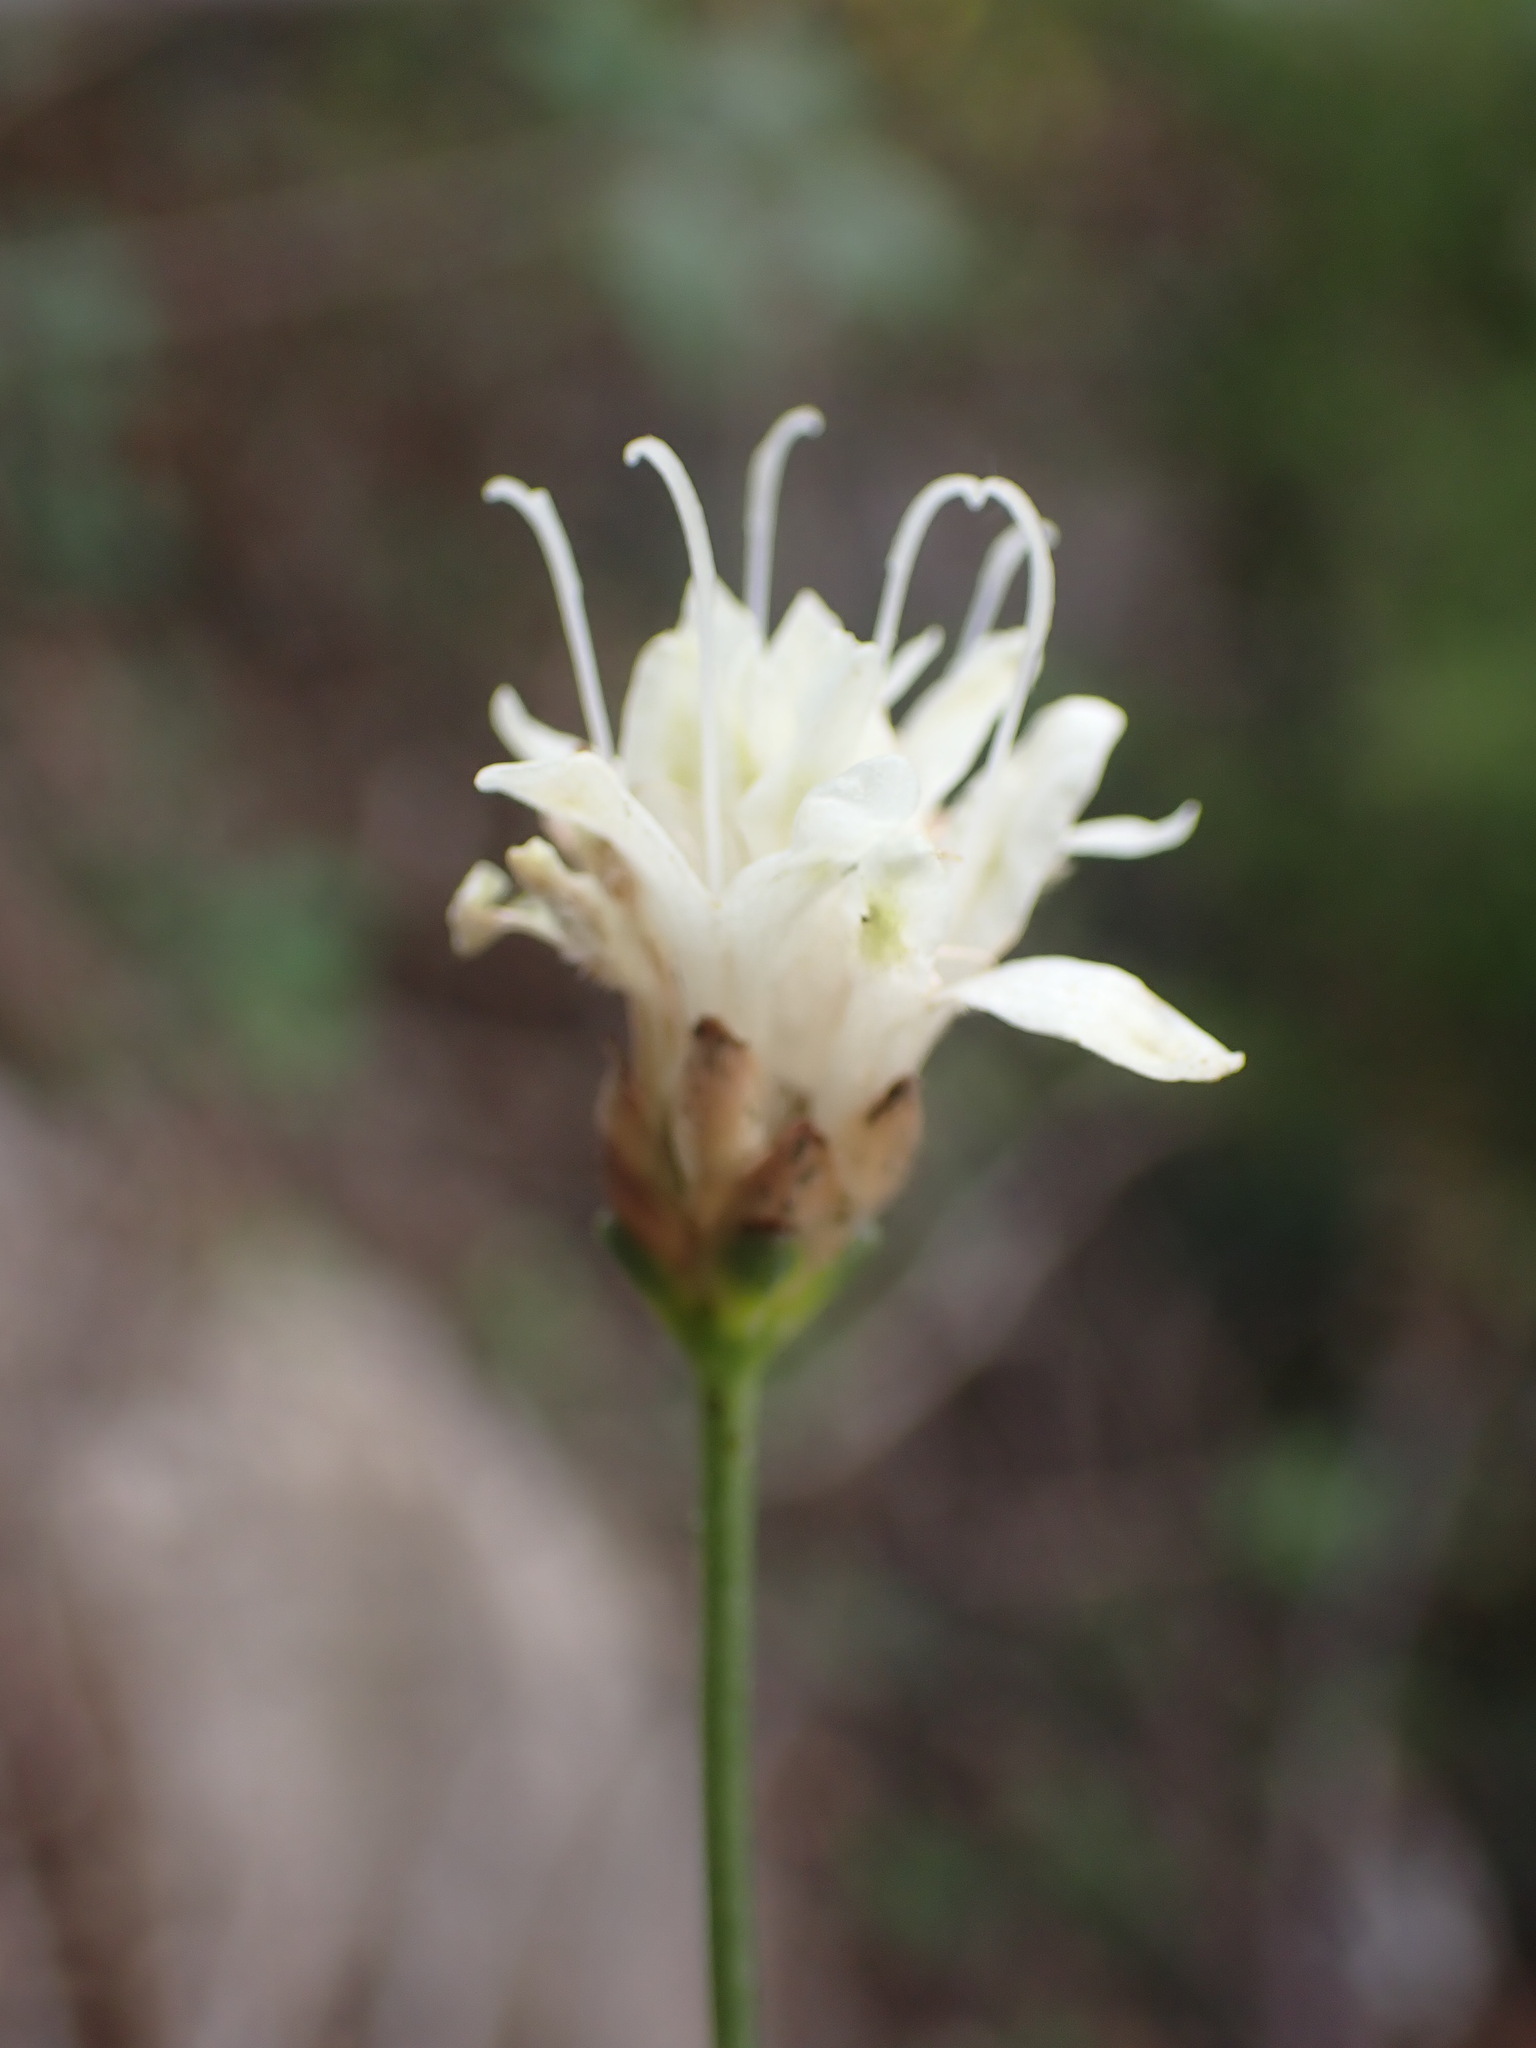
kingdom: Plantae
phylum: Tracheophyta
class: Magnoliopsida
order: Dipsacales
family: Caprifoliaceae
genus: Cephalaria
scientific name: Cephalaria leucantha
